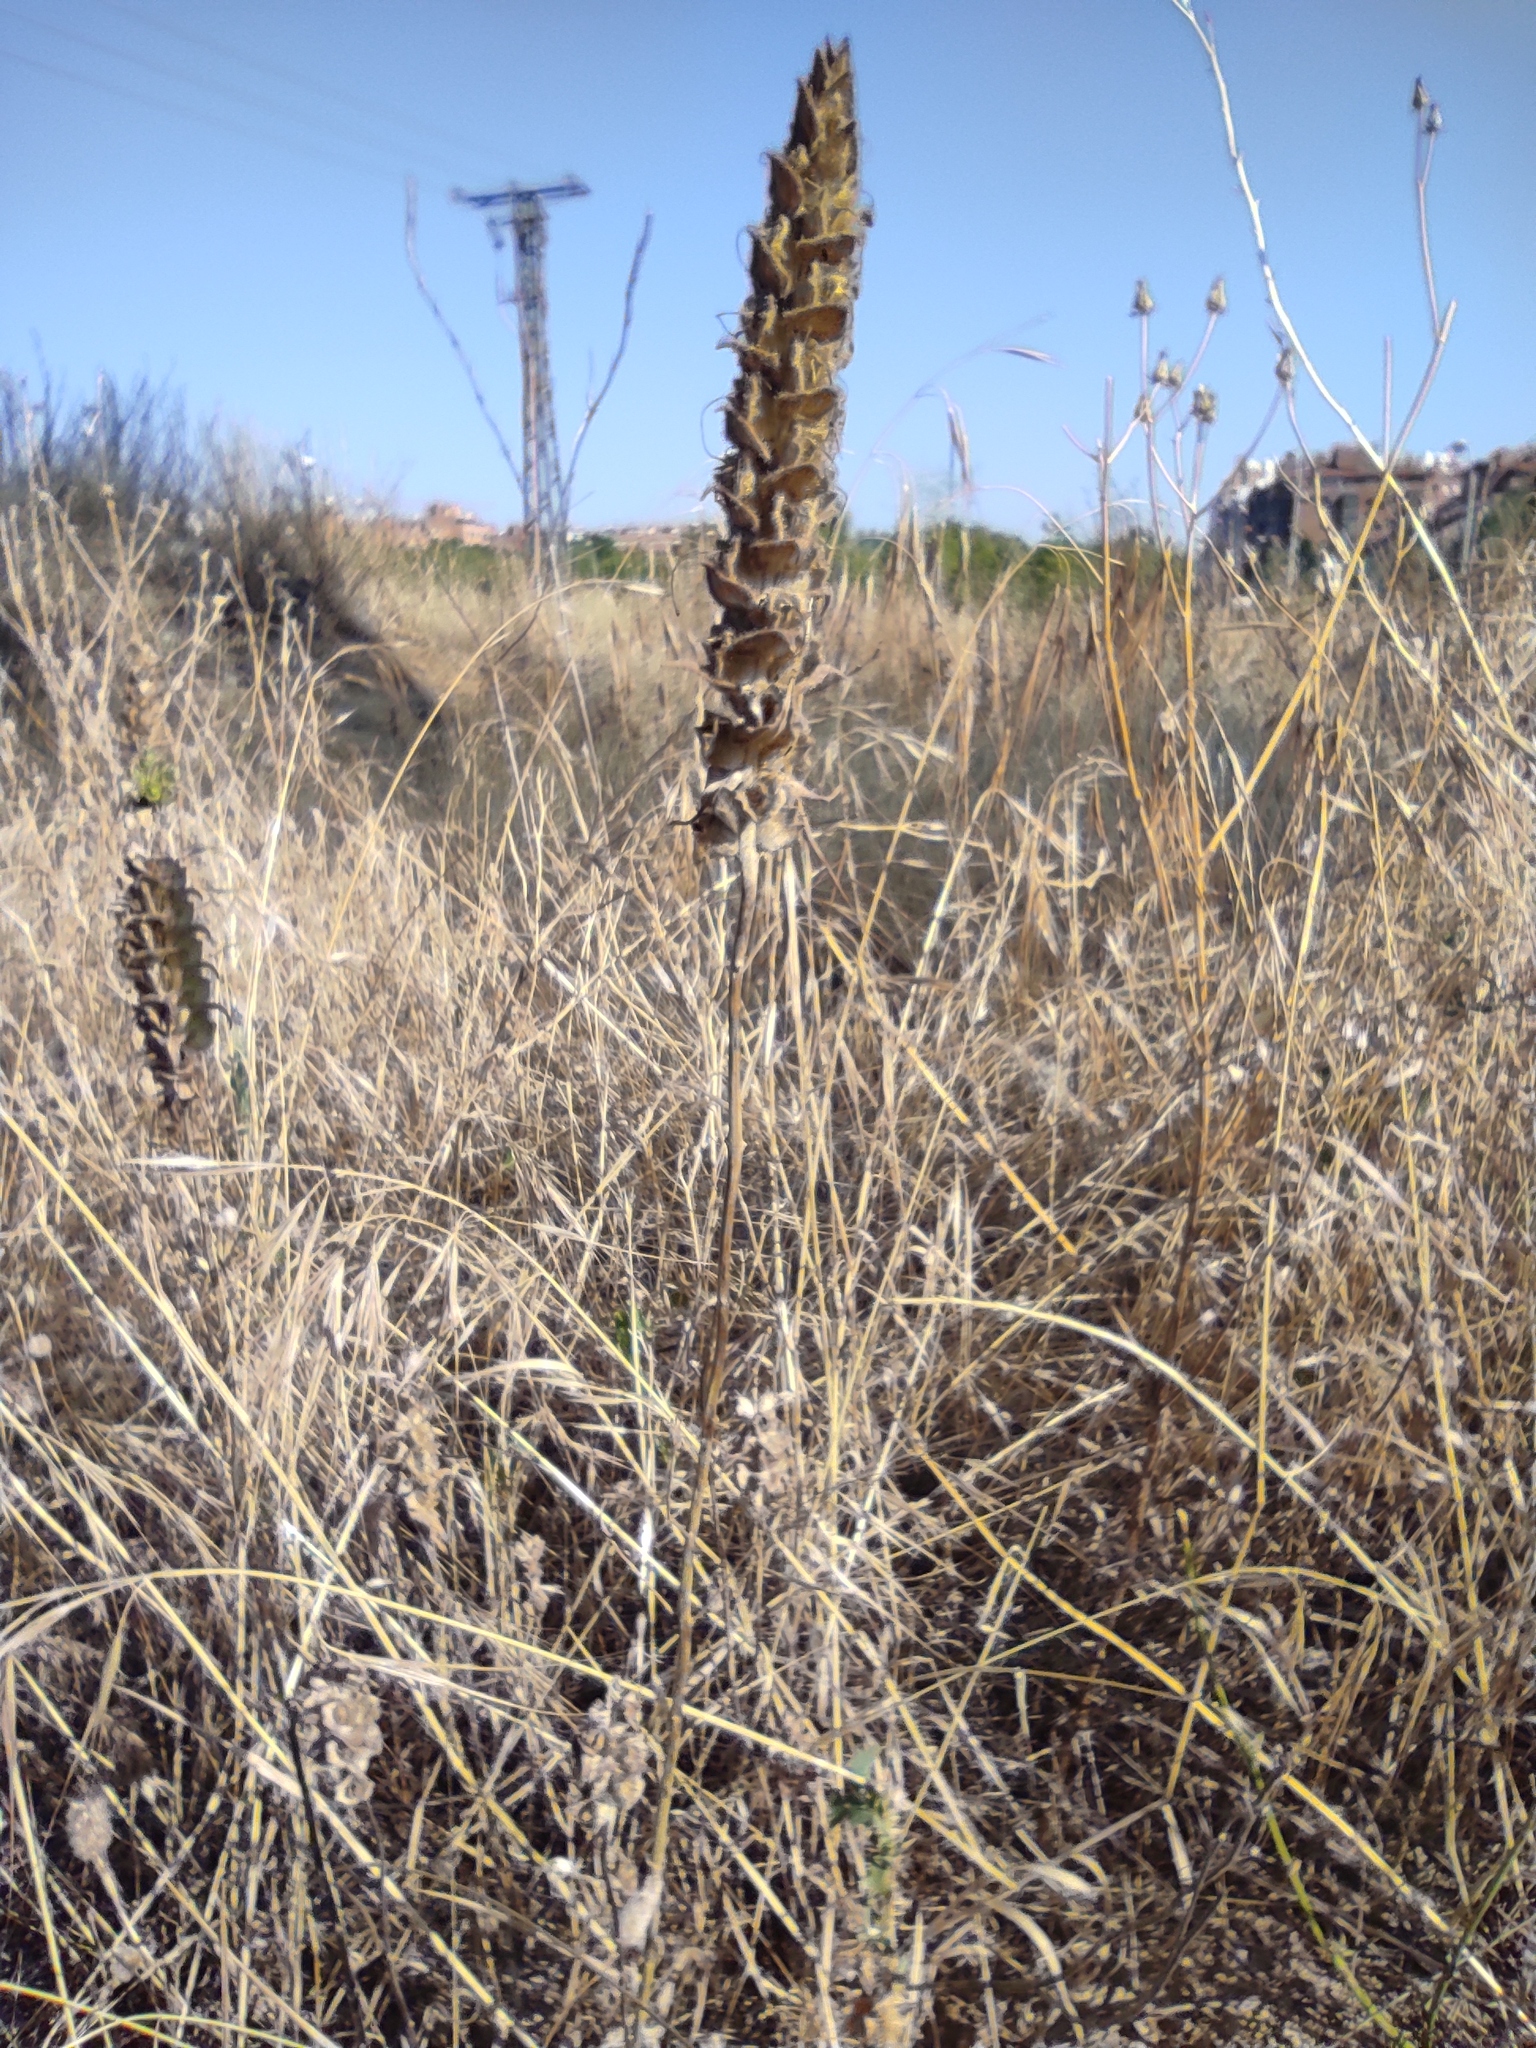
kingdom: Plantae
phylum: Tracheophyta
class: Magnoliopsida
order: Lamiales
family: Orobanchaceae
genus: Bellardia
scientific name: Bellardia trixago
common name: Mediterranean lineseed
